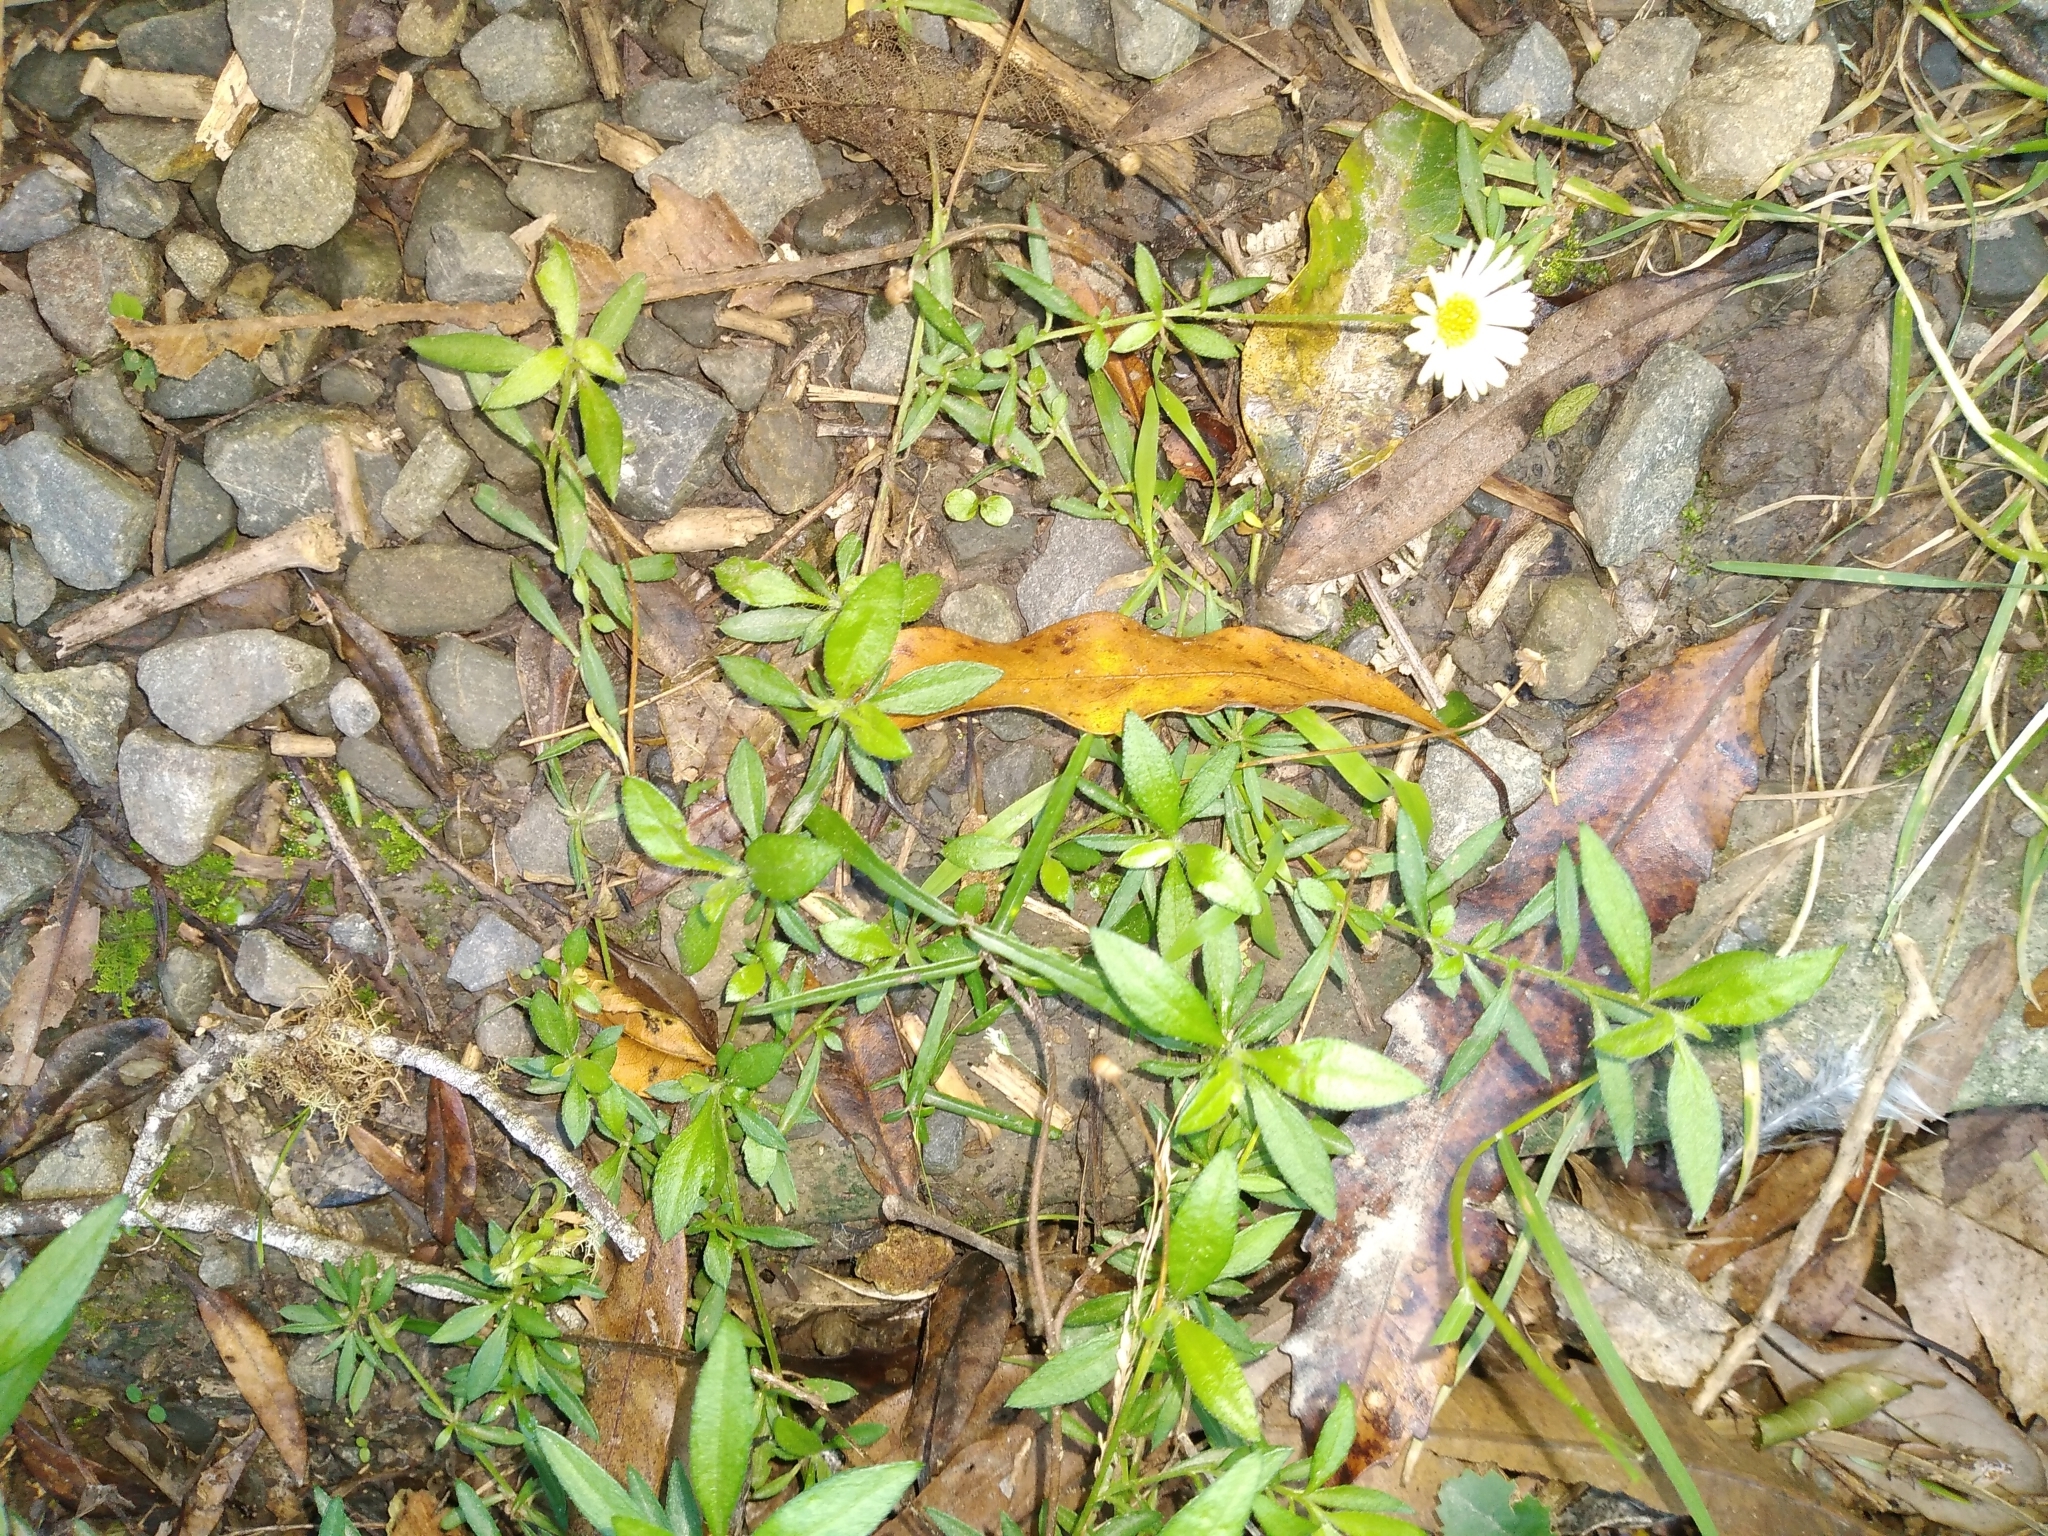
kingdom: Plantae
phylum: Tracheophyta
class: Magnoliopsida
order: Asterales
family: Asteraceae
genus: Erigeron
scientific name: Erigeron karvinskianus
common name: Mexican fleabane
